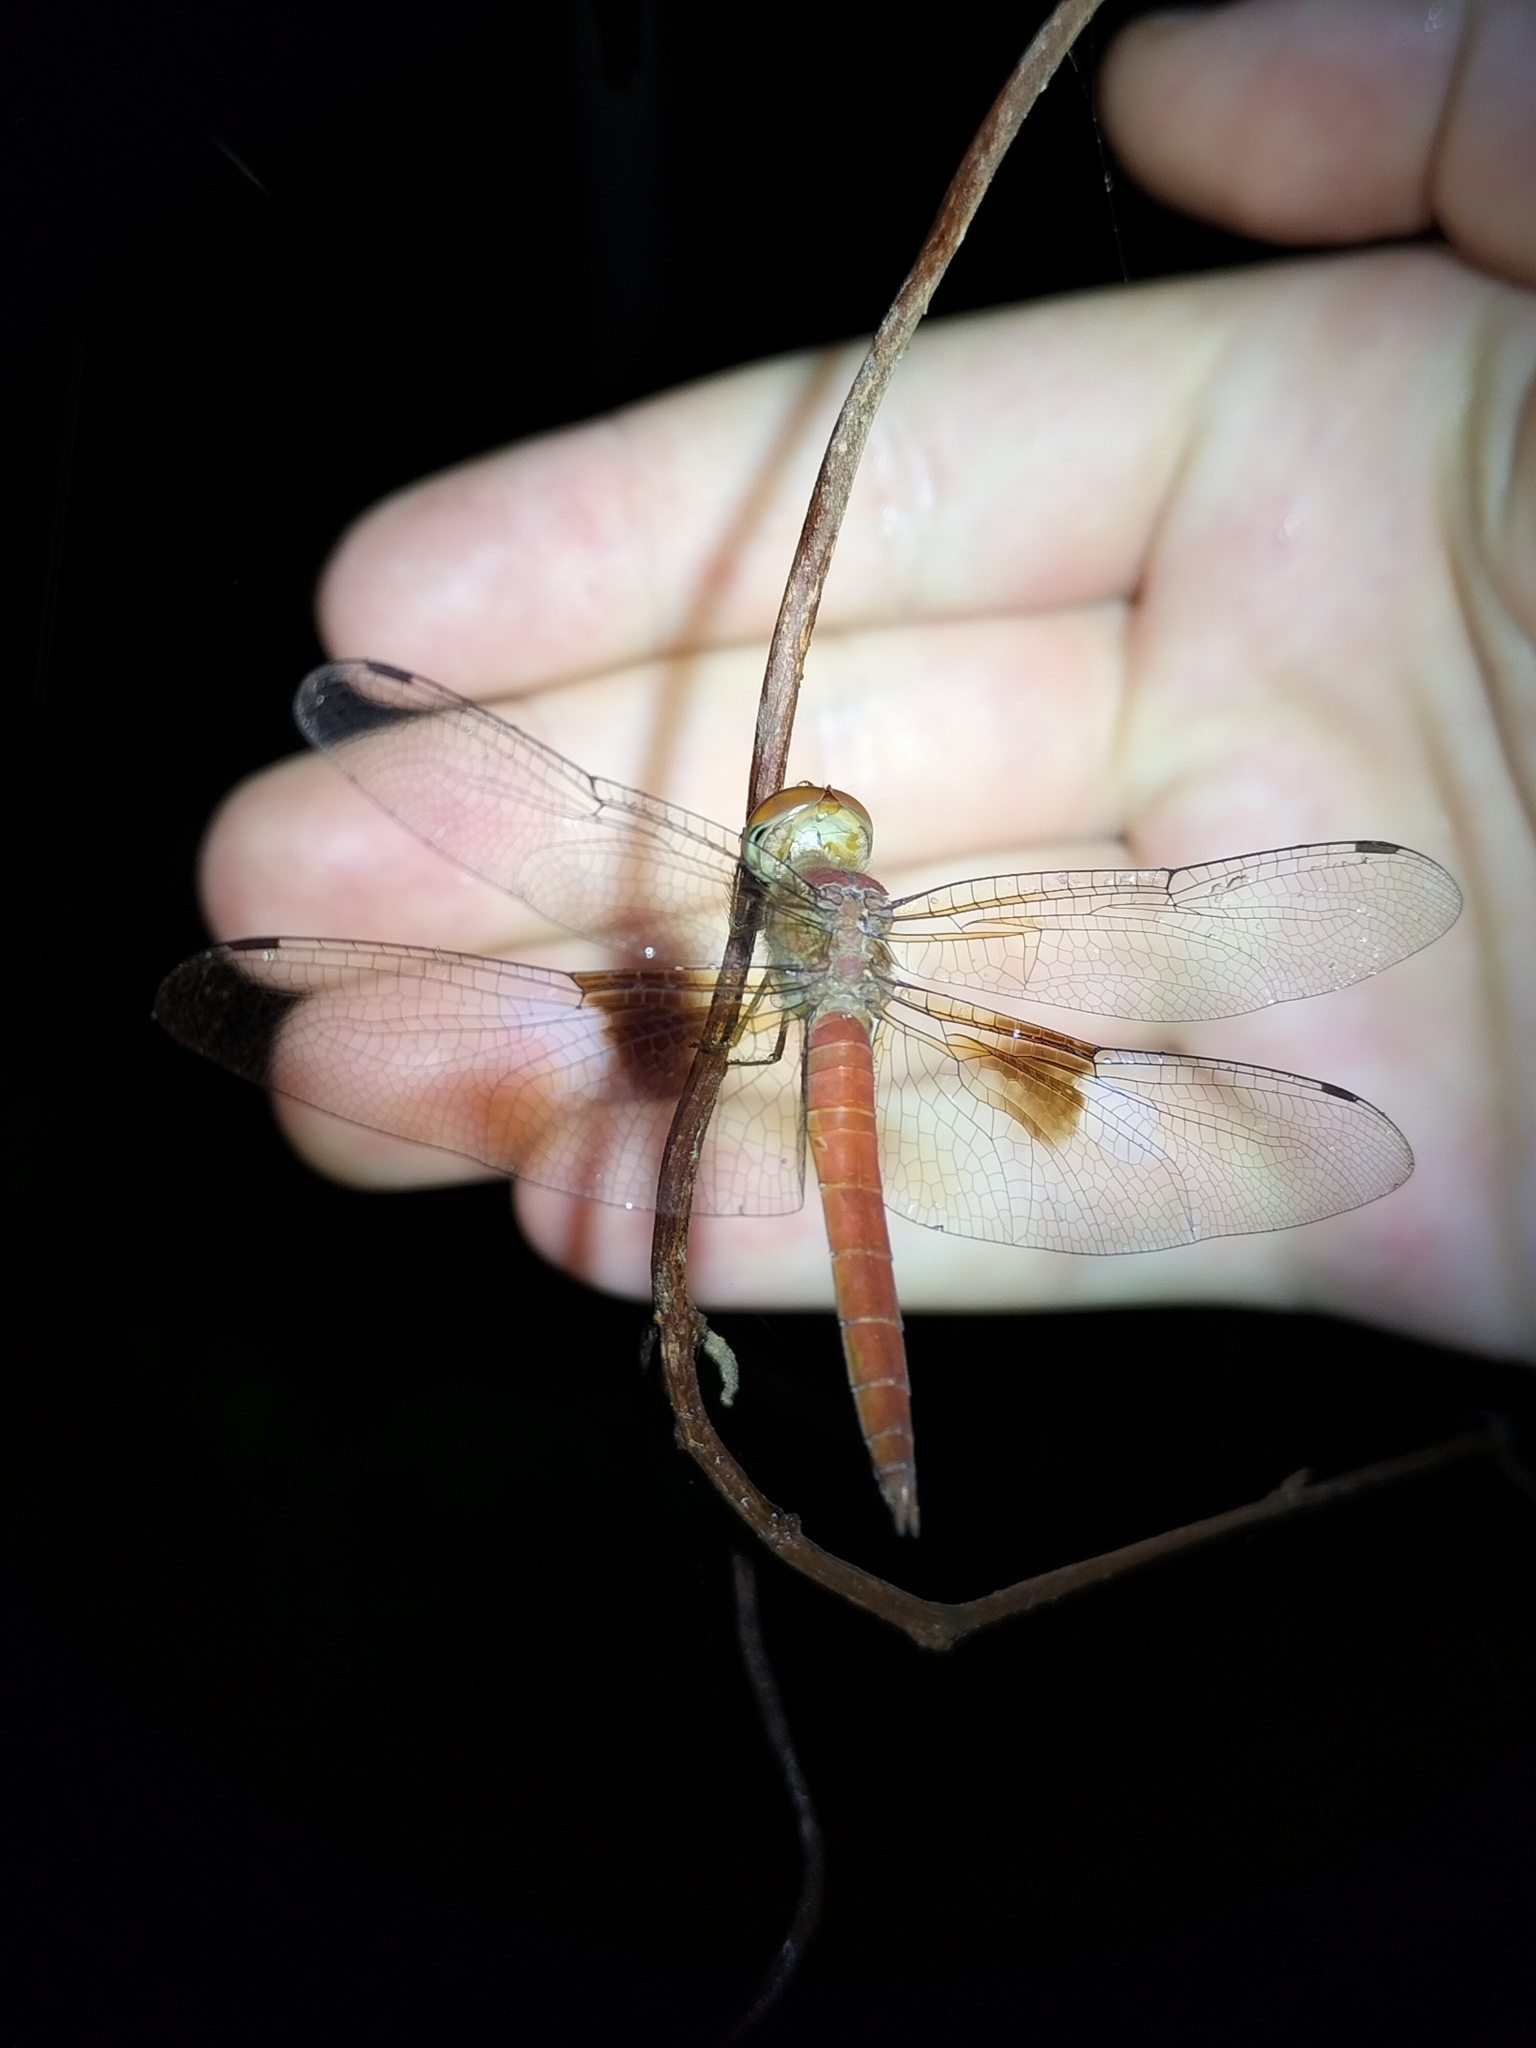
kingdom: Animalia
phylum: Arthropoda
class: Insecta
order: Odonata
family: Libellulidae
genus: Tholymis
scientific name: Tholymis tillarga
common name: Coral-tailed cloud wing
